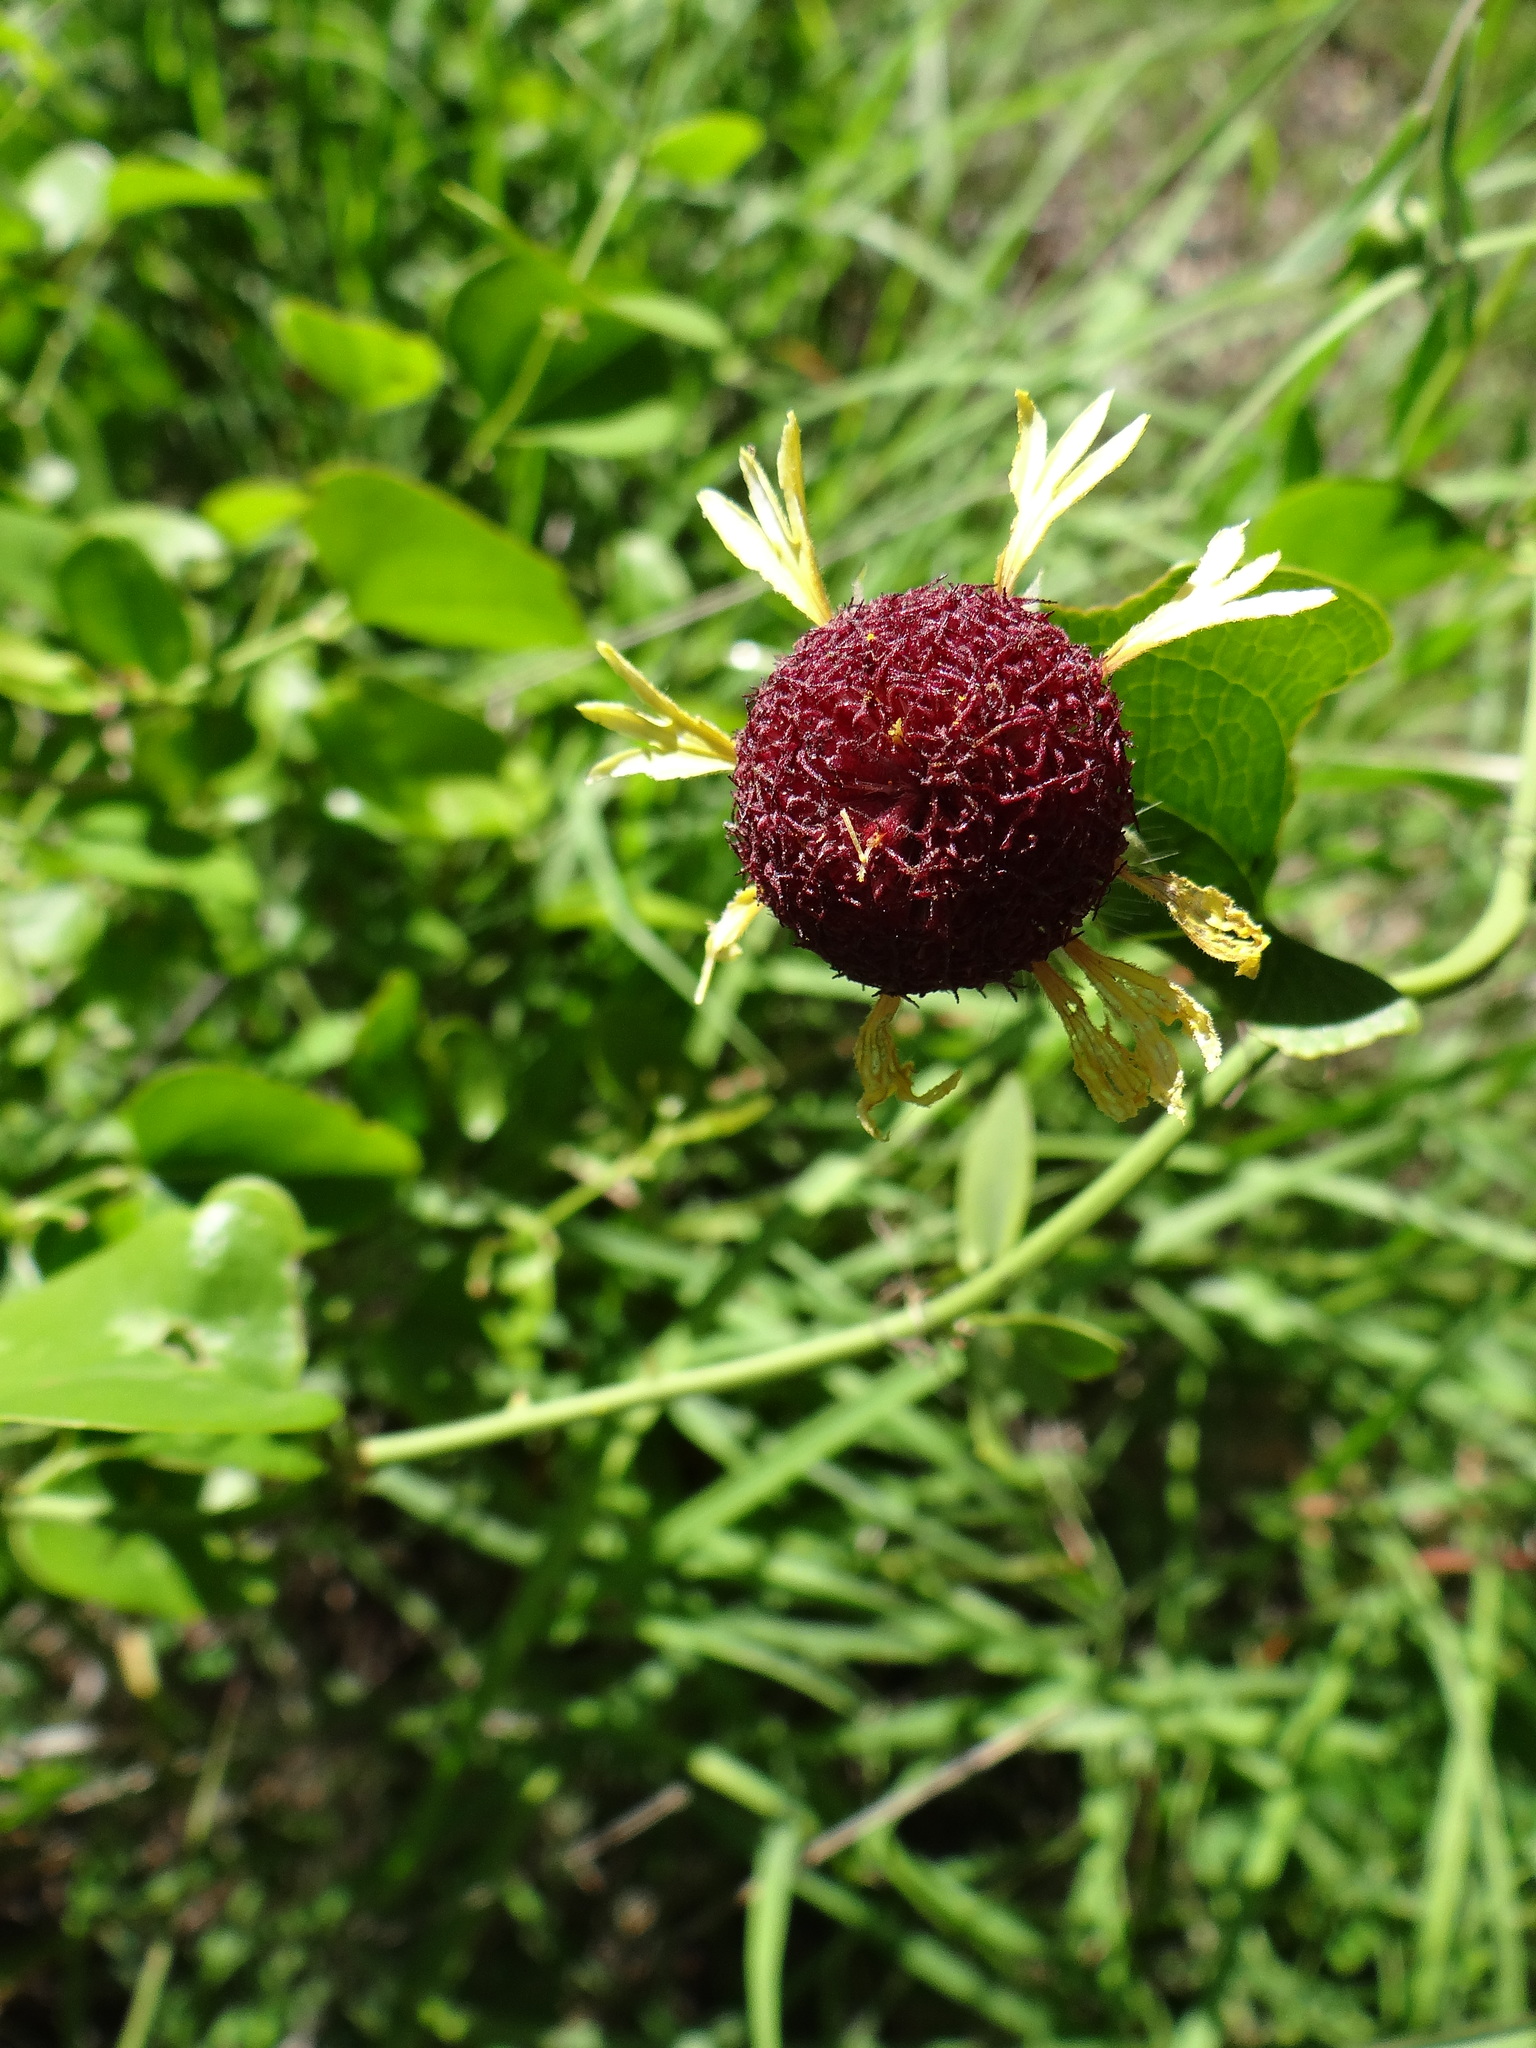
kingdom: Plantae
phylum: Tracheophyta
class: Magnoliopsida
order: Asterales
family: Asteraceae
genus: Gaillardia
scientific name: Gaillardia aestivalis
